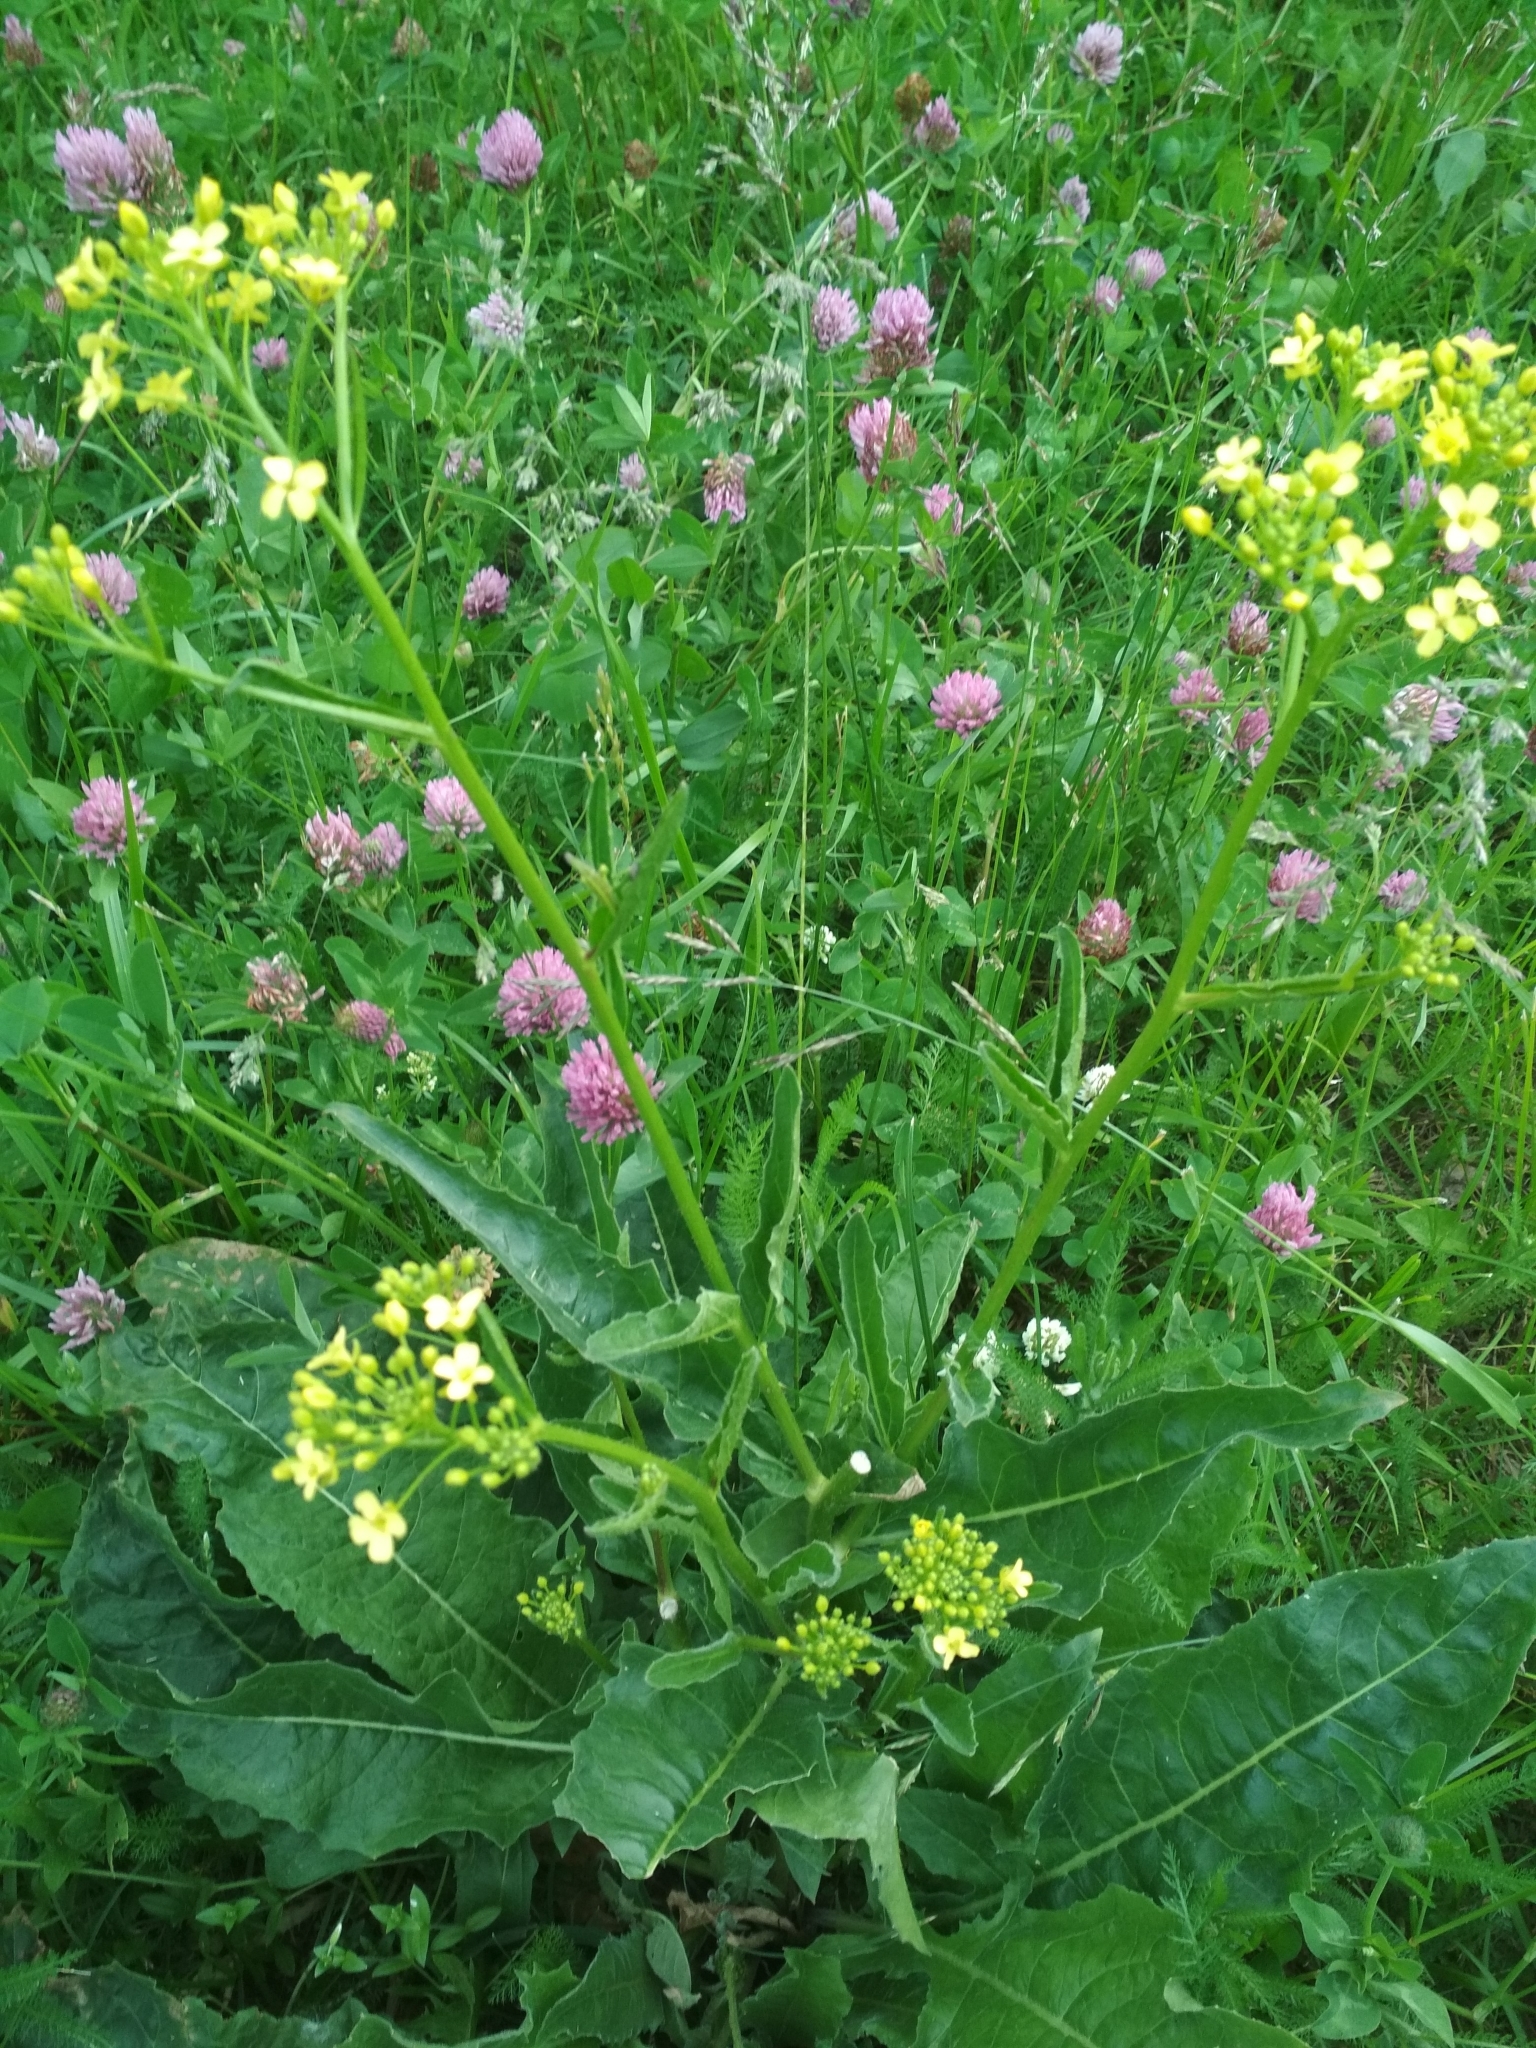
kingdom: Plantae
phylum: Tracheophyta
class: Magnoliopsida
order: Brassicales
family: Brassicaceae
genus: Bunias
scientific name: Bunias orientalis
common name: Warty-cabbage
